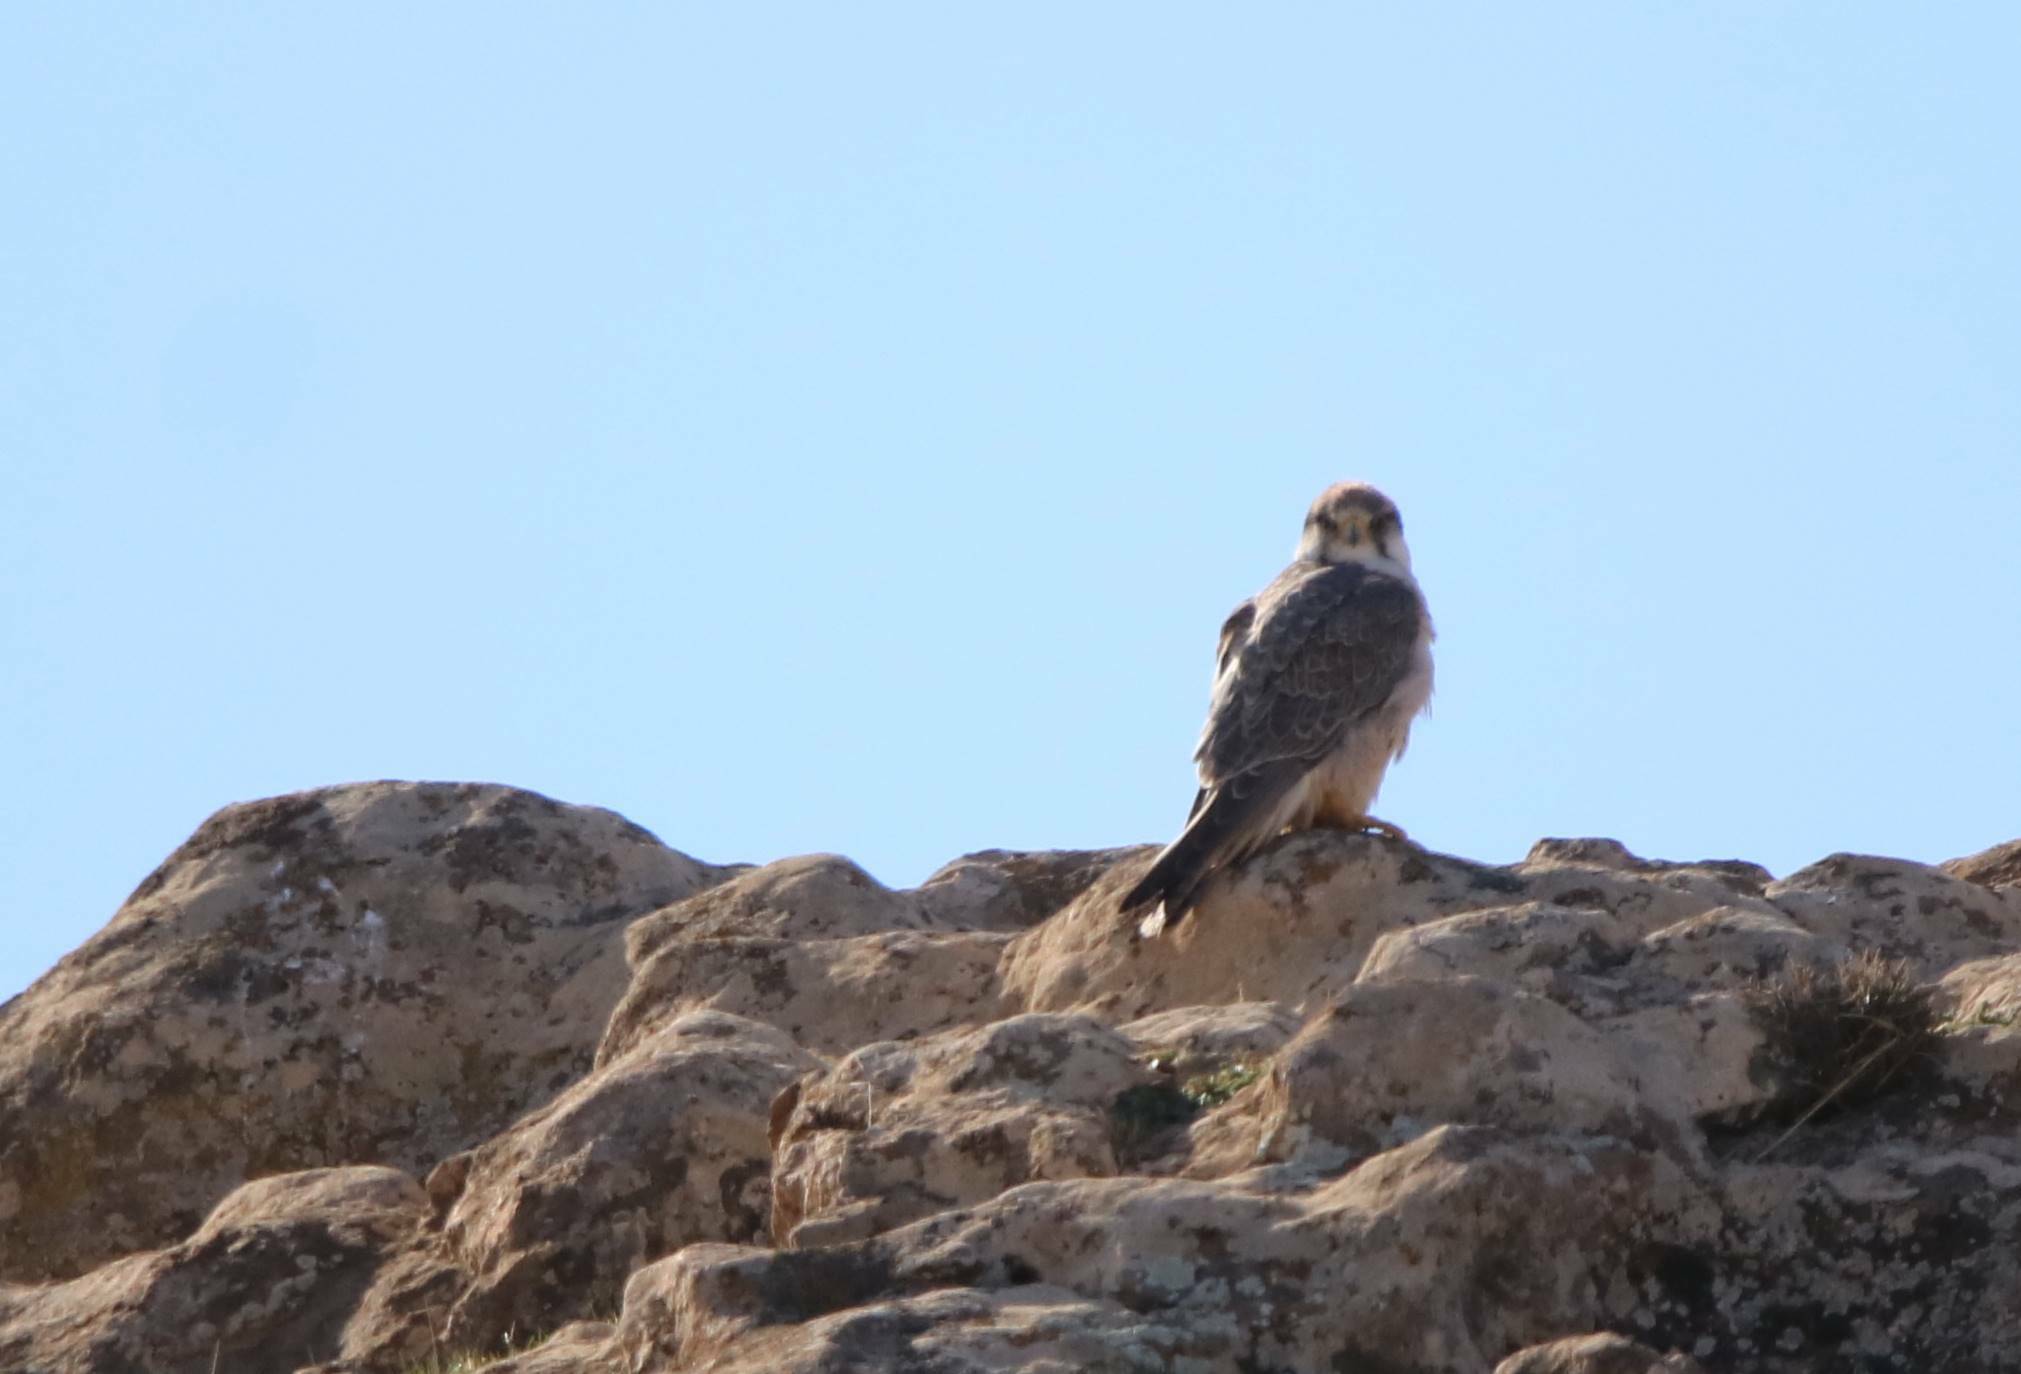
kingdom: Animalia
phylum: Chordata
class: Aves
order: Falconiformes
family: Falconidae
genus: Falco
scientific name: Falco biarmicus
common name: Lanner falcon
